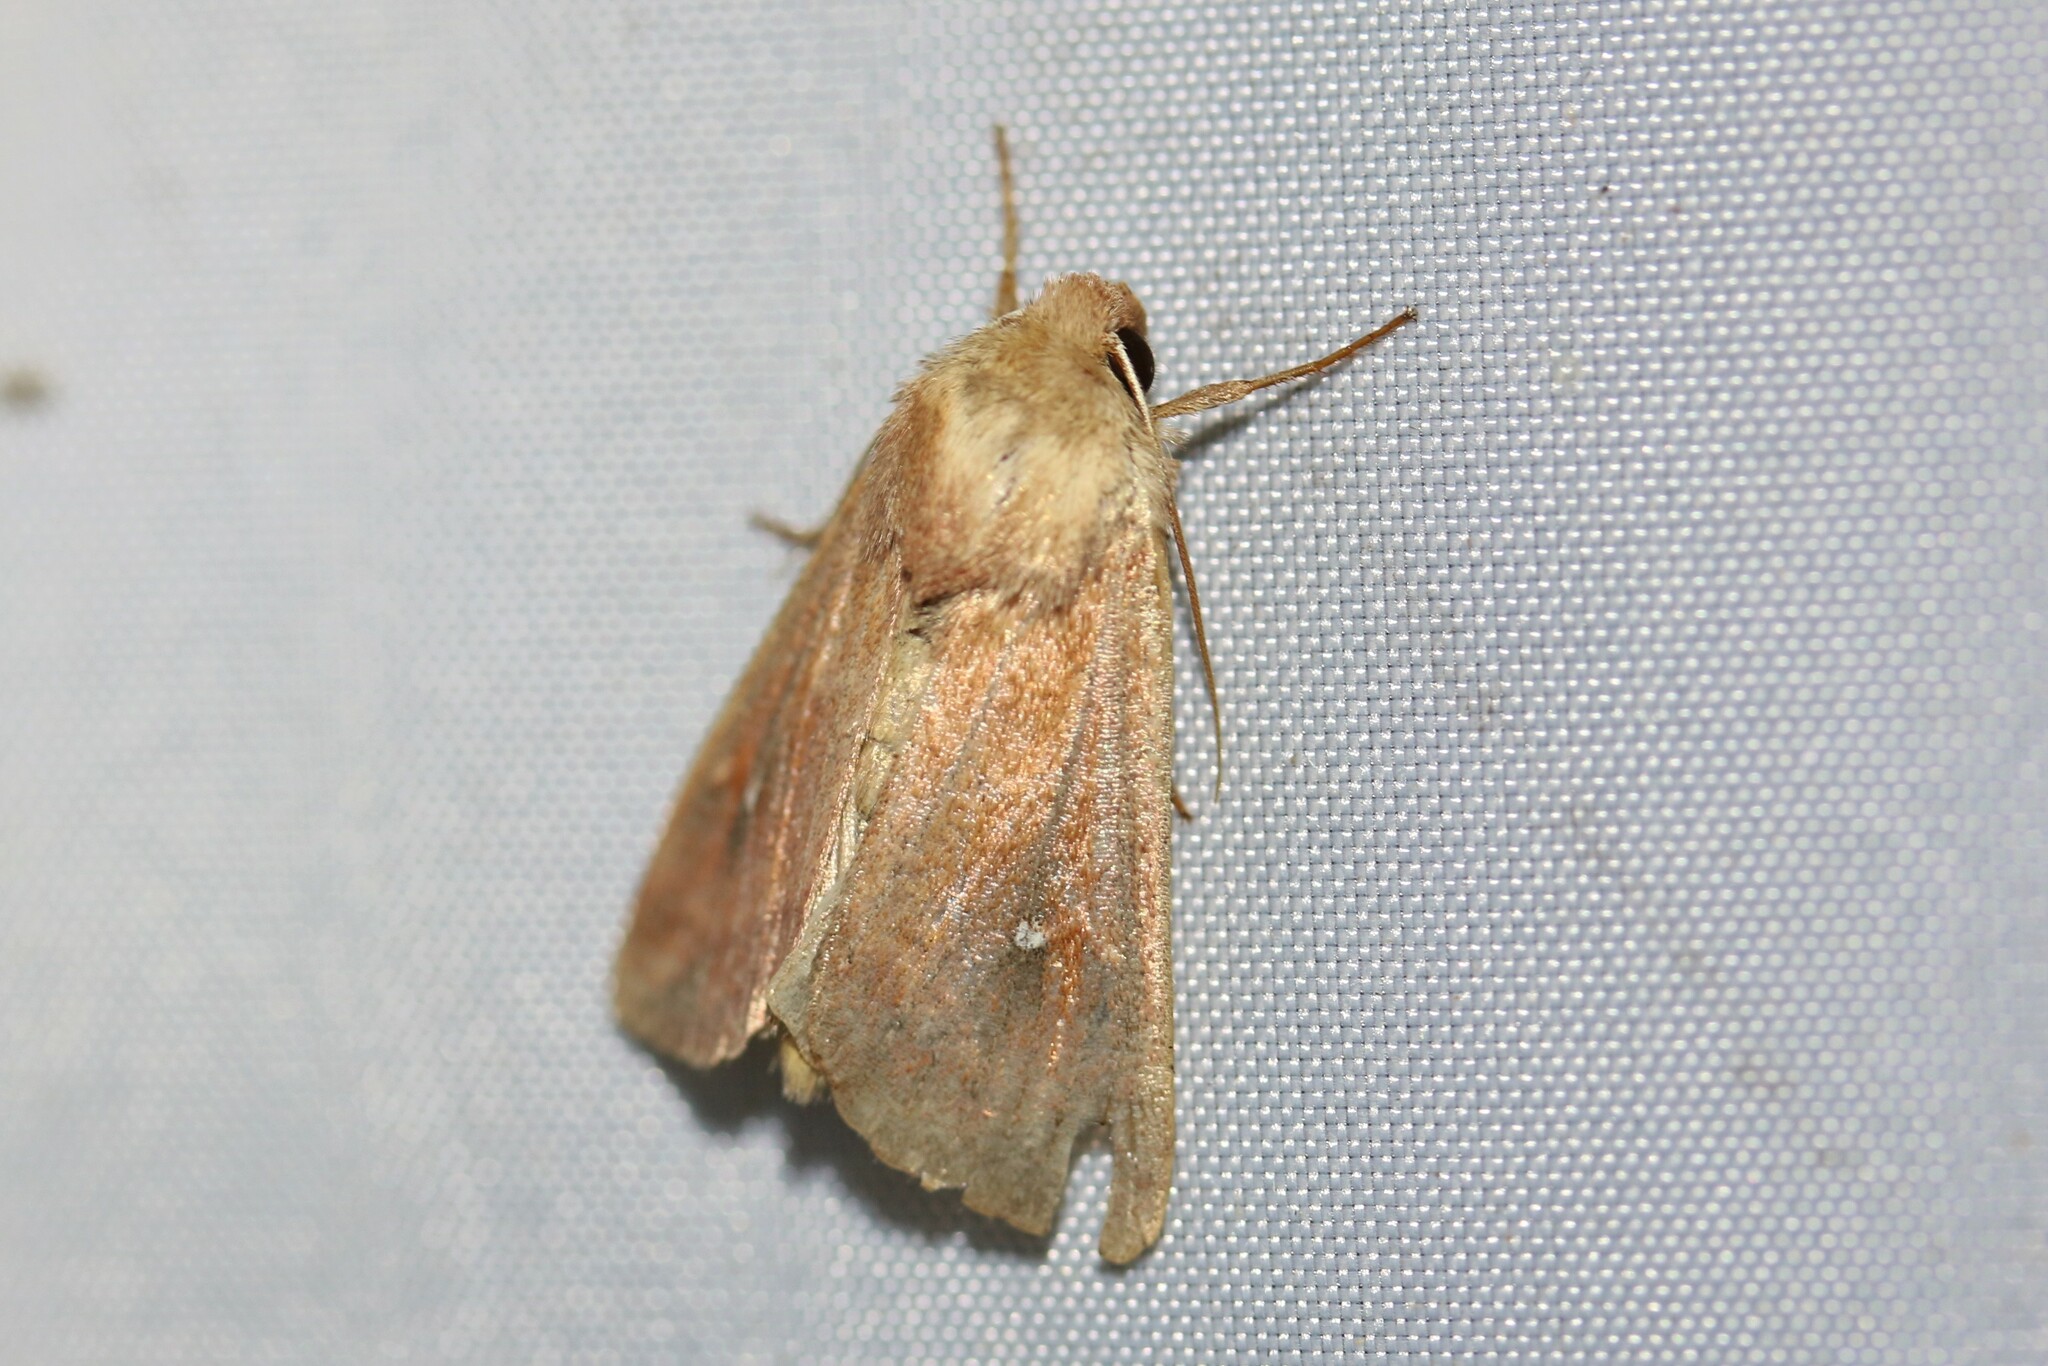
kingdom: Animalia
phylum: Arthropoda
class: Insecta
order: Lepidoptera
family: Noctuidae
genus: Mythimna
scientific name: Mythimna albipuncta
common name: White-point
